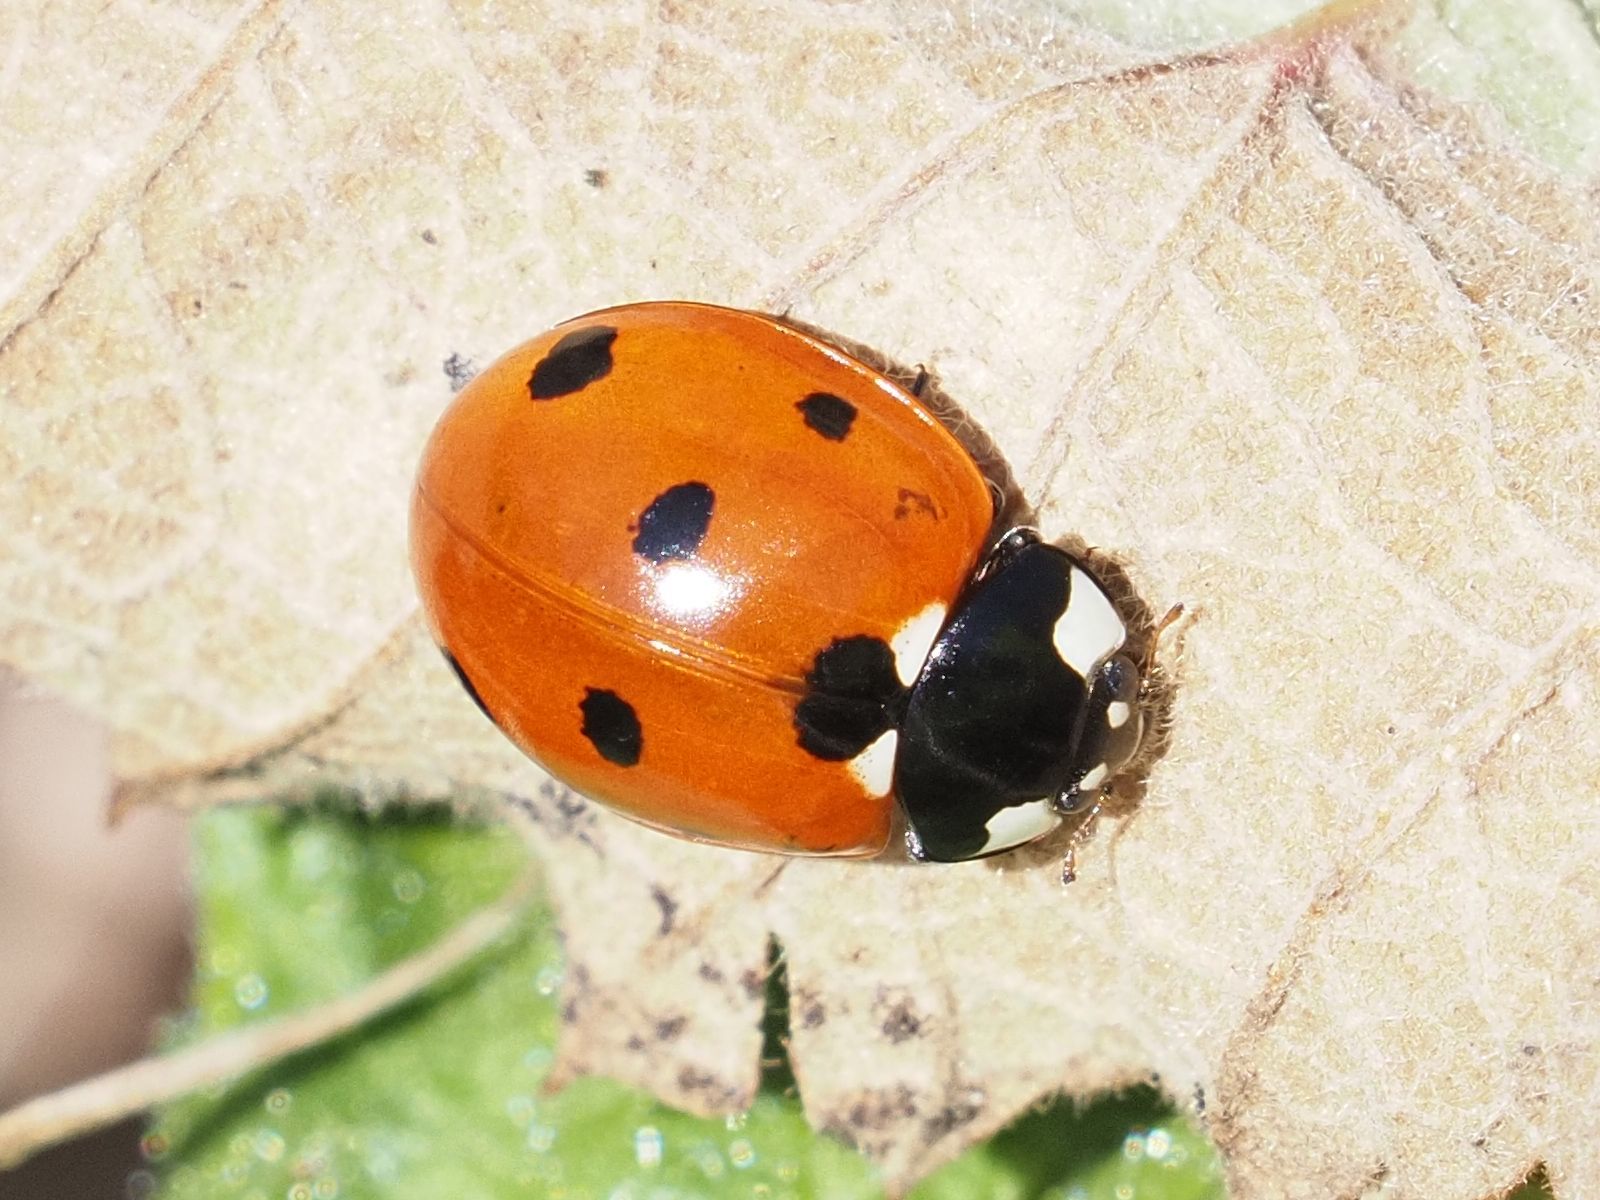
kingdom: Animalia
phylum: Arthropoda
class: Insecta
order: Coleoptera
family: Coccinellidae
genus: Coccinella
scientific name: Coccinella septempunctata
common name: Sevenspotted lady beetle
